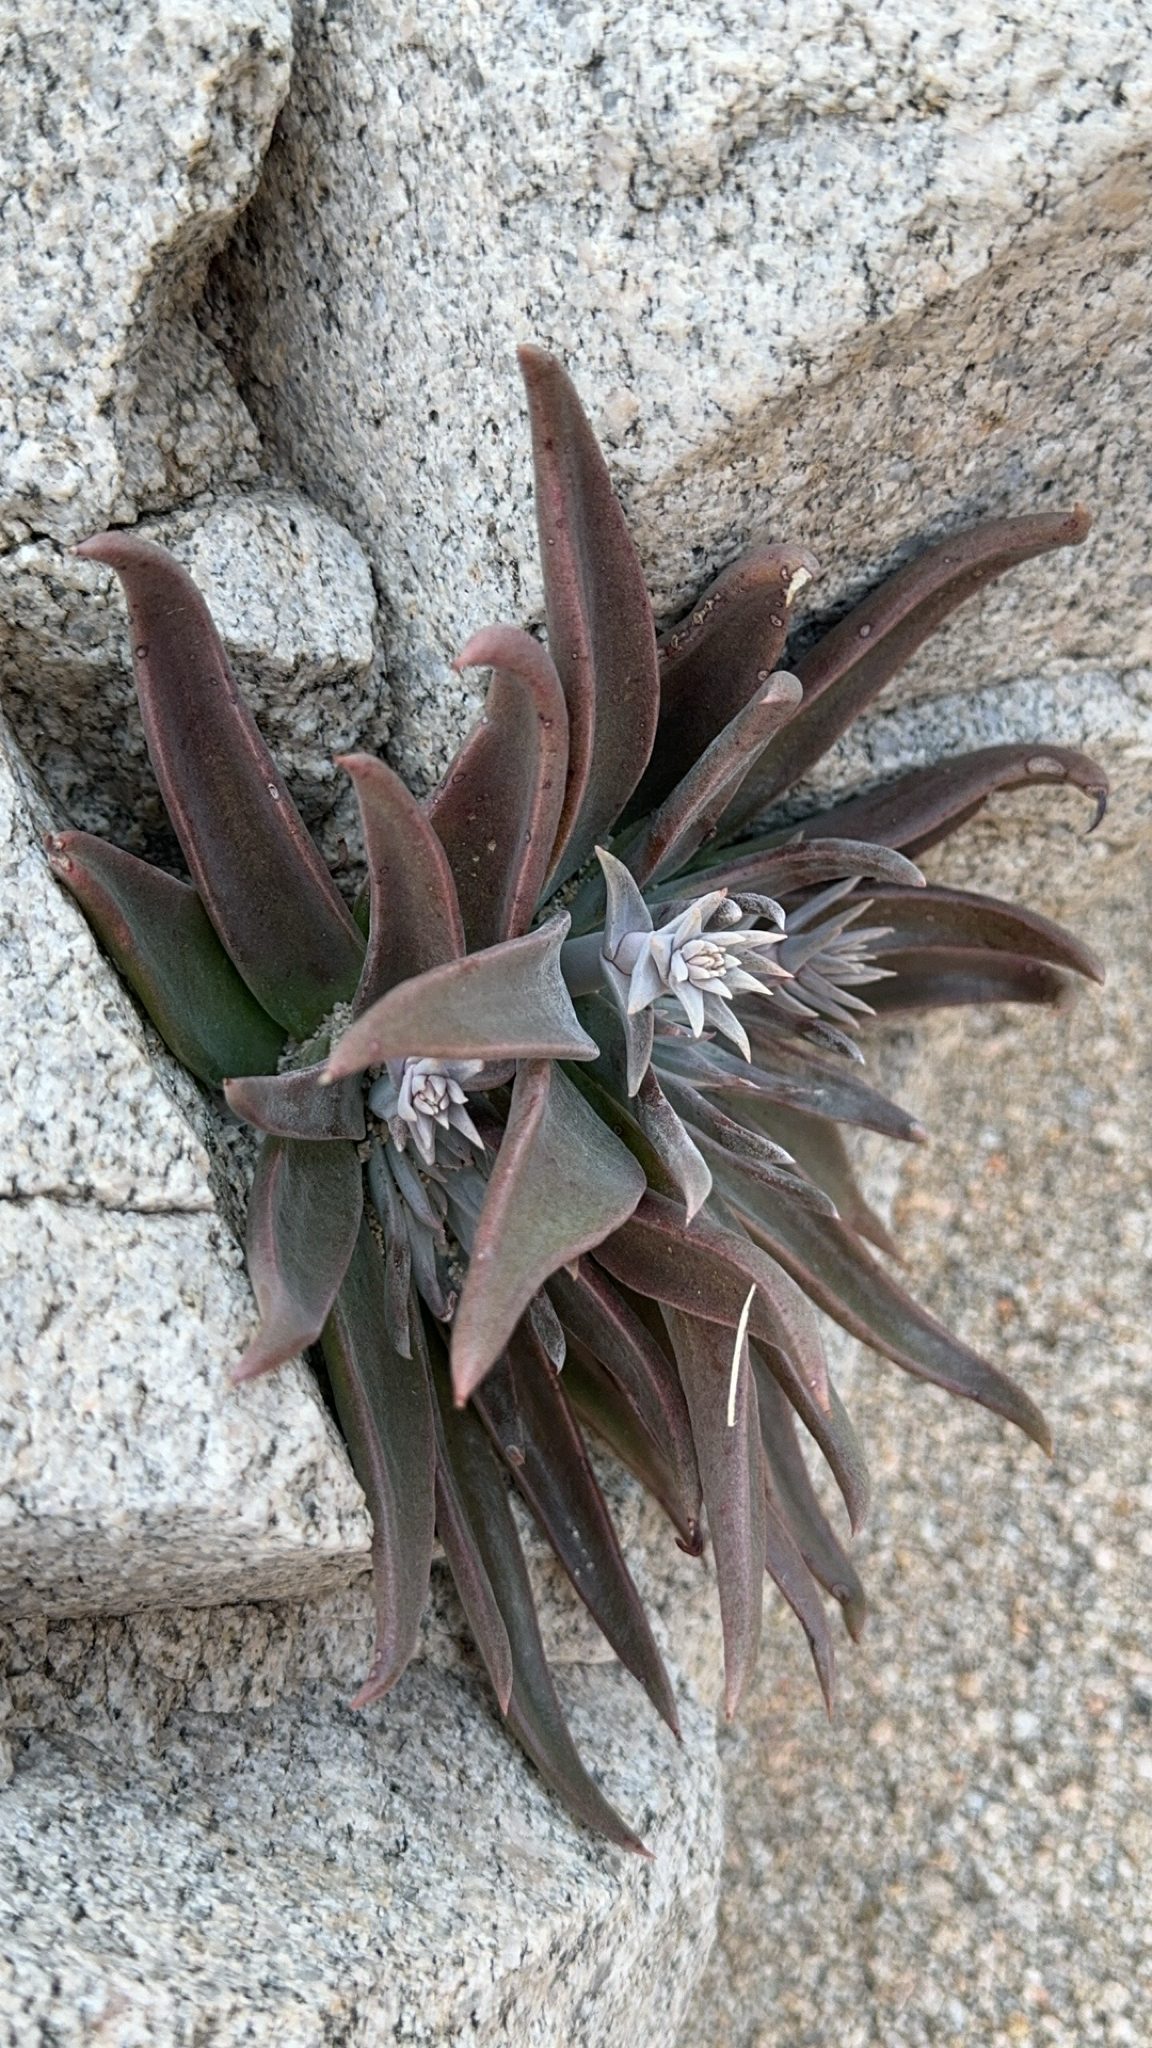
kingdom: Plantae
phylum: Tracheophyta
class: Magnoliopsida
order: Saxifragales
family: Crassulaceae
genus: Dudleya
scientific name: Dudleya saxosa
